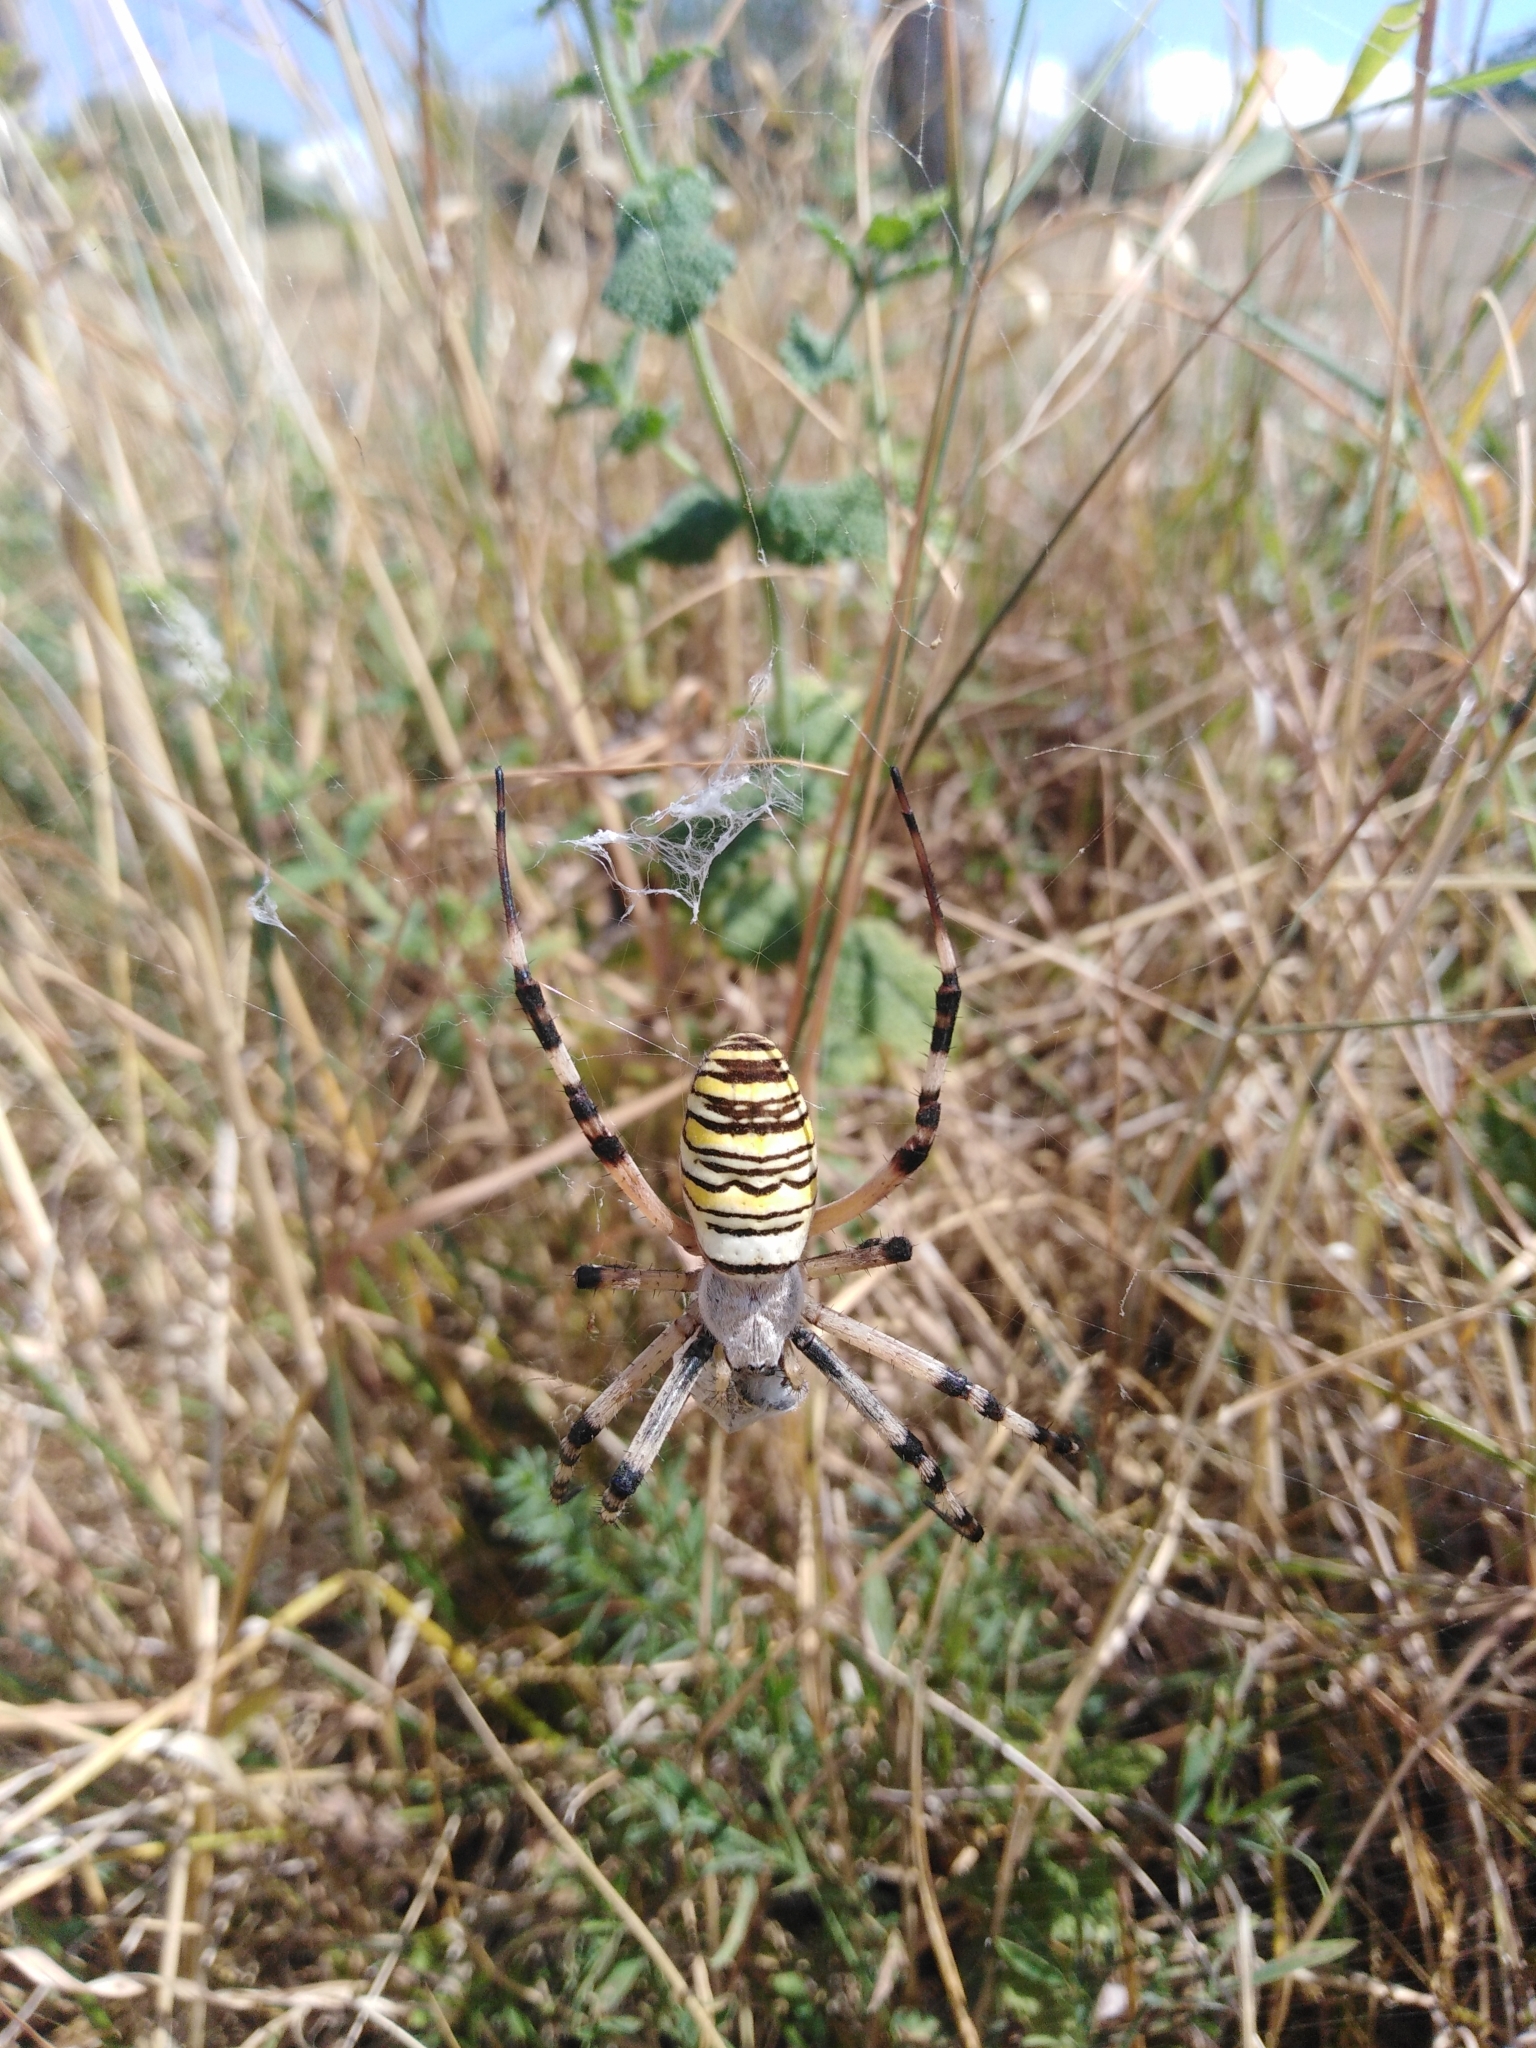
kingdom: Animalia
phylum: Arthropoda
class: Arachnida
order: Araneae
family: Araneidae
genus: Argiope
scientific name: Argiope bruennichi
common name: Wasp spider
